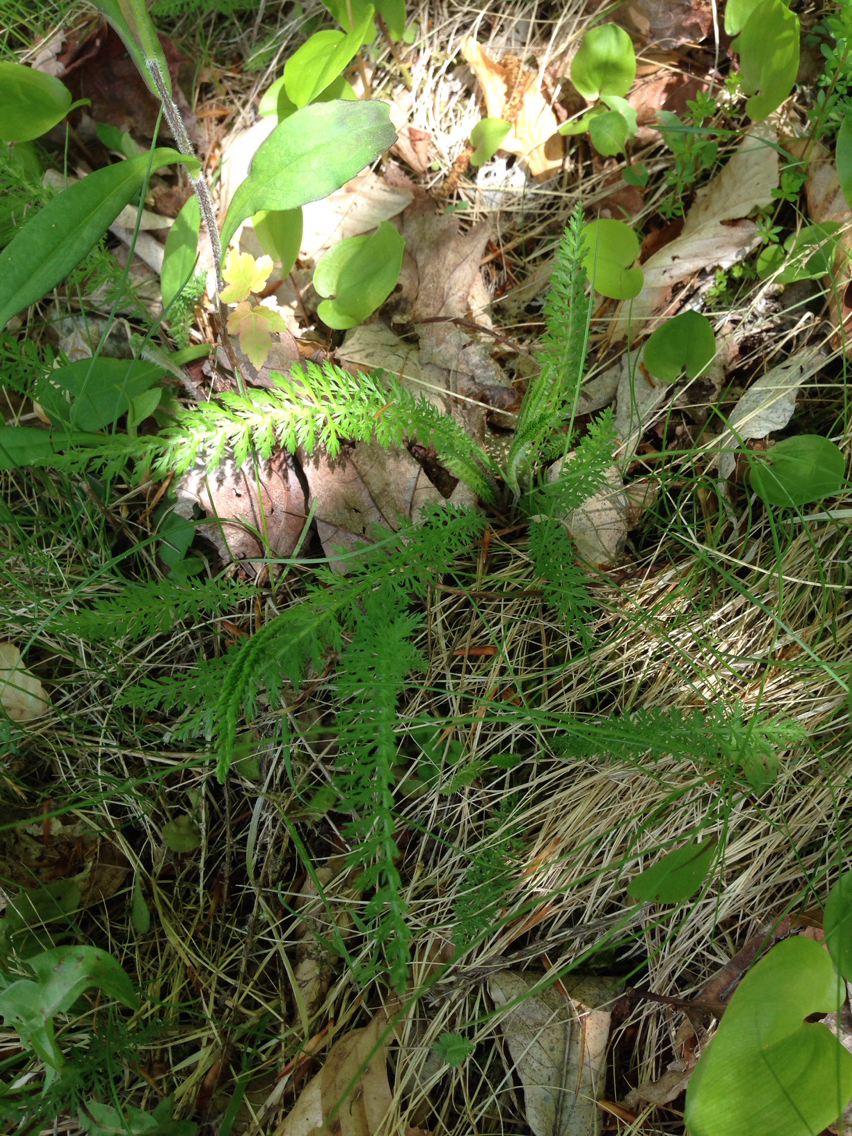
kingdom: Plantae
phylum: Tracheophyta
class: Magnoliopsida
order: Asterales
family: Asteraceae
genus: Achillea
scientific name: Achillea millefolium
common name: Yarrow
